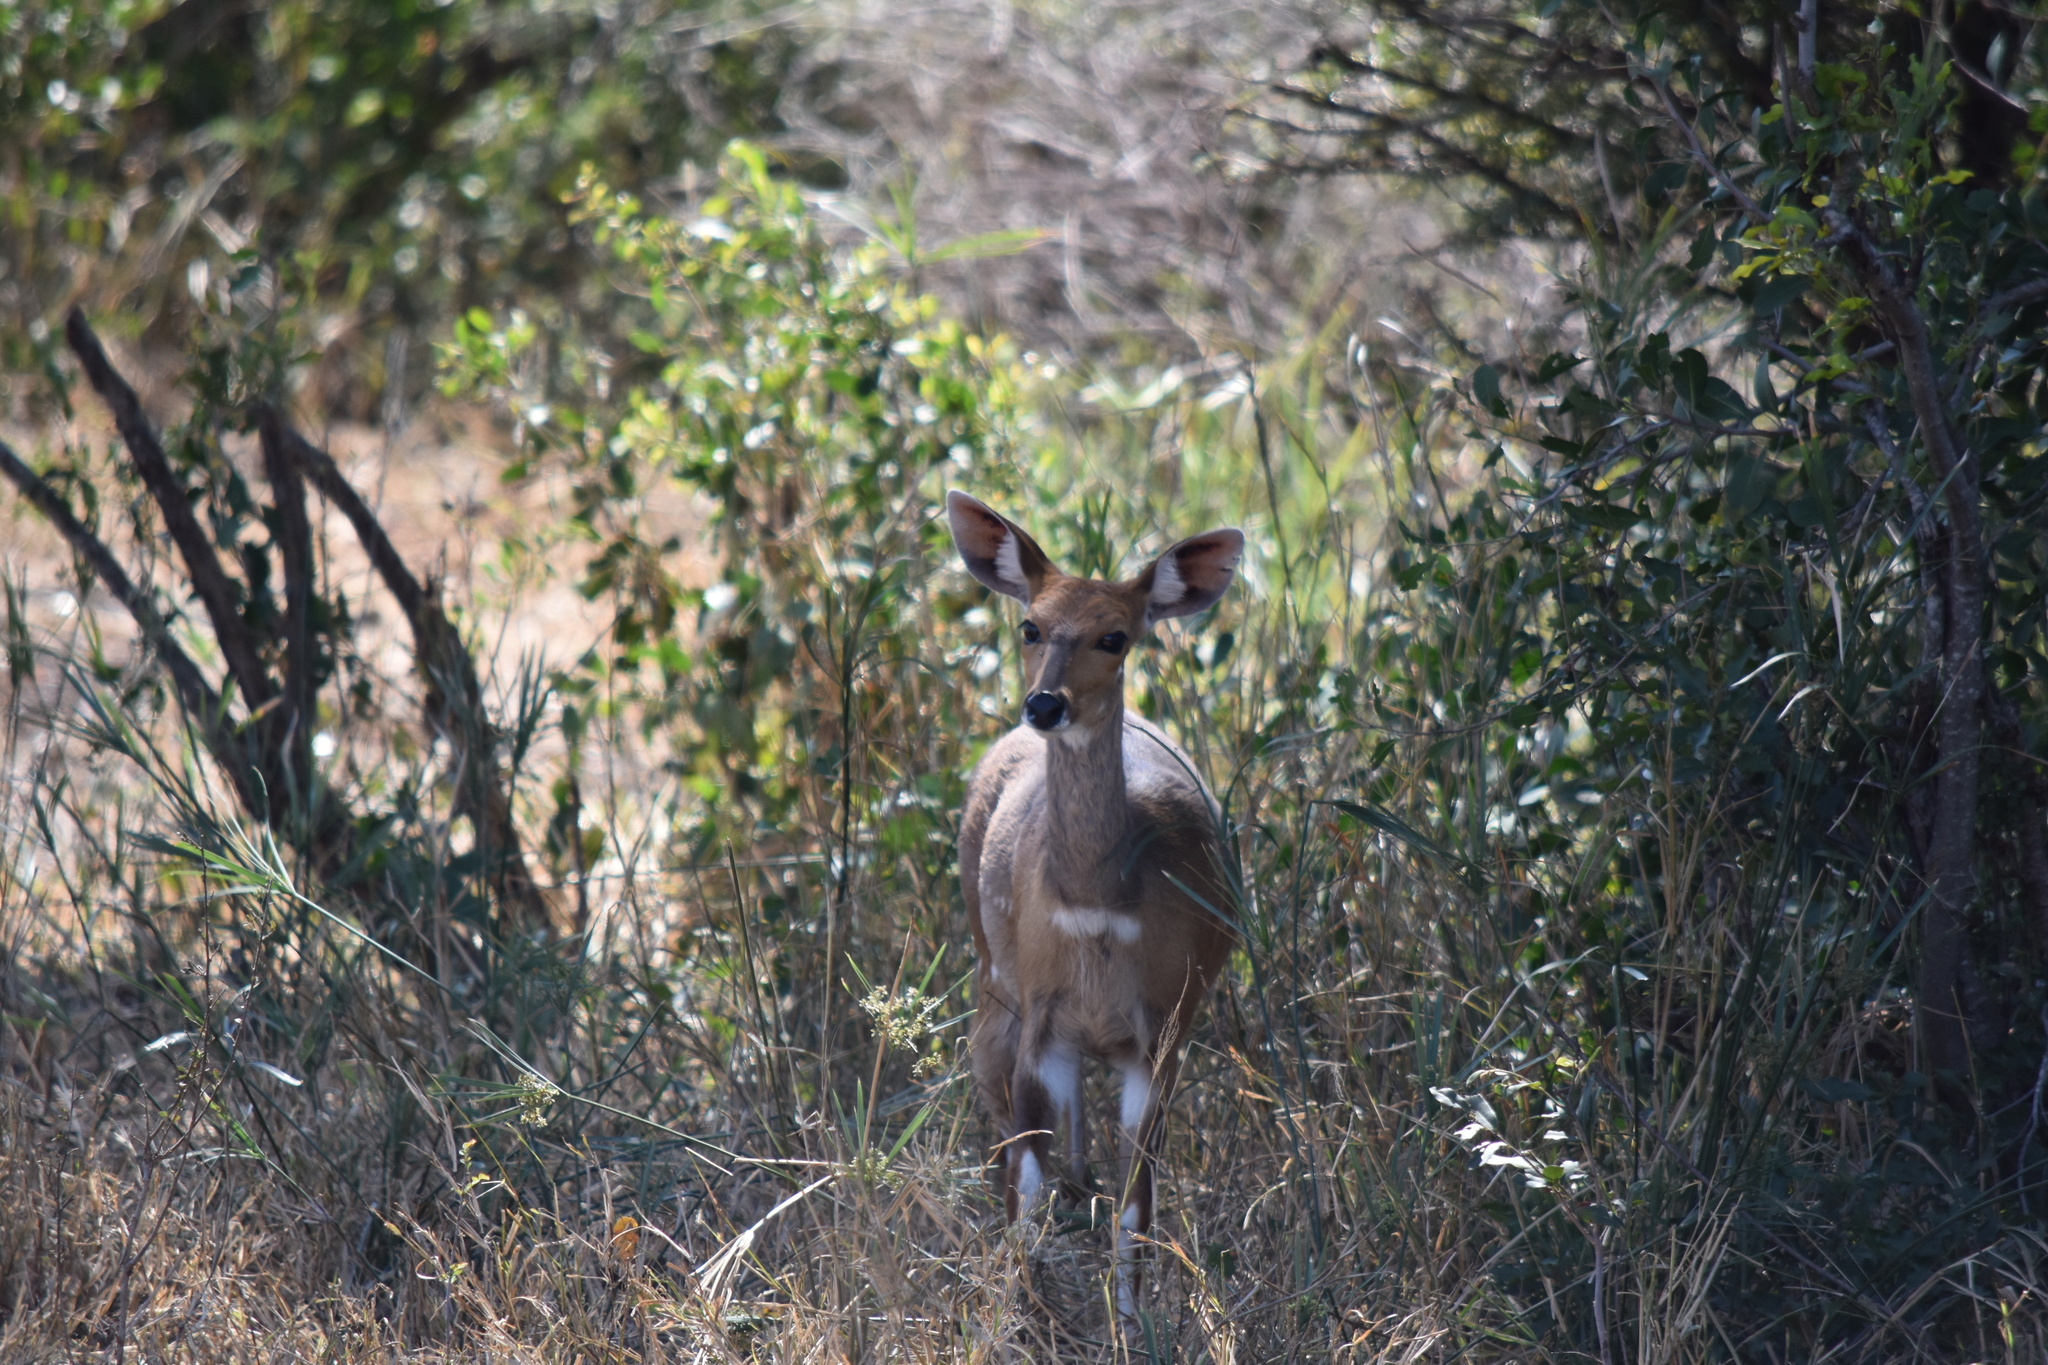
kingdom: Animalia
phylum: Chordata
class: Mammalia
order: Artiodactyla
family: Bovidae
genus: Tragelaphus
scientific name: Tragelaphus scriptus
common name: Bushbuck
